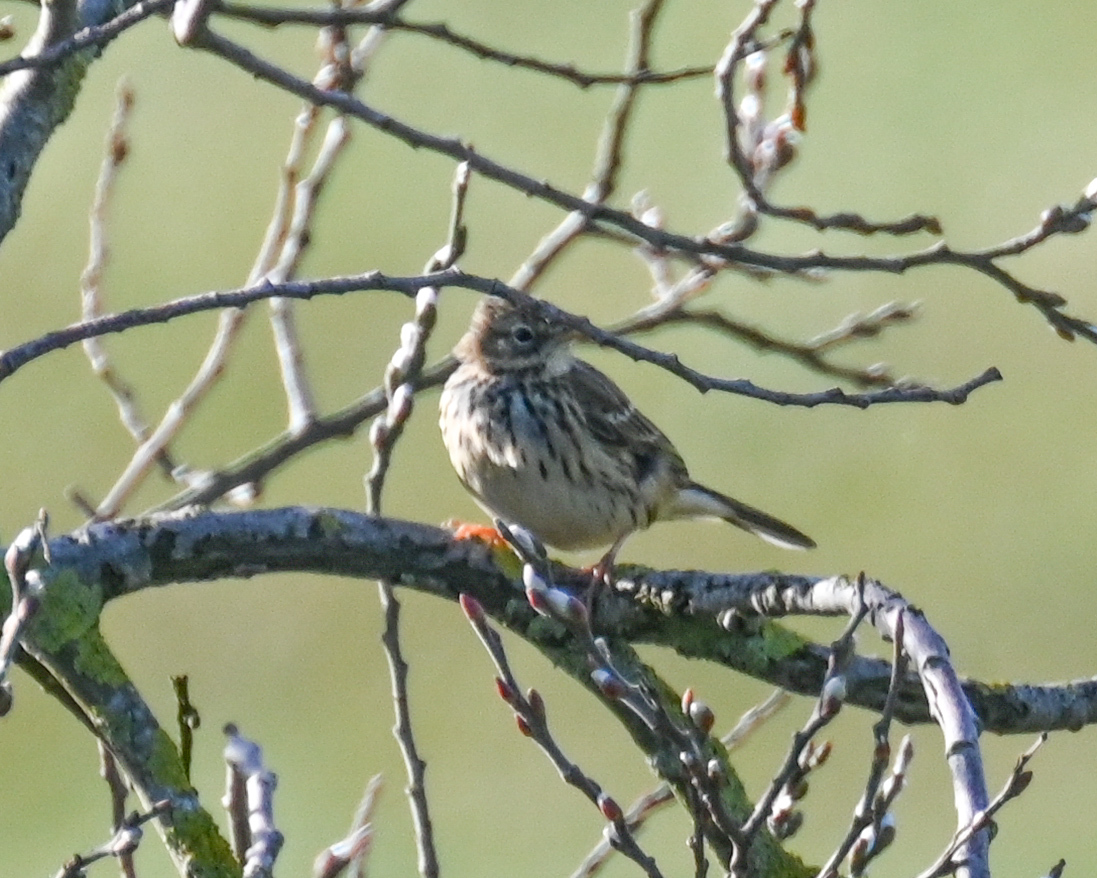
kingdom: Animalia
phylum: Chordata
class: Aves
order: Passeriformes
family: Motacillidae
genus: Anthus
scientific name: Anthus pratensis
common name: Meadow pipit
